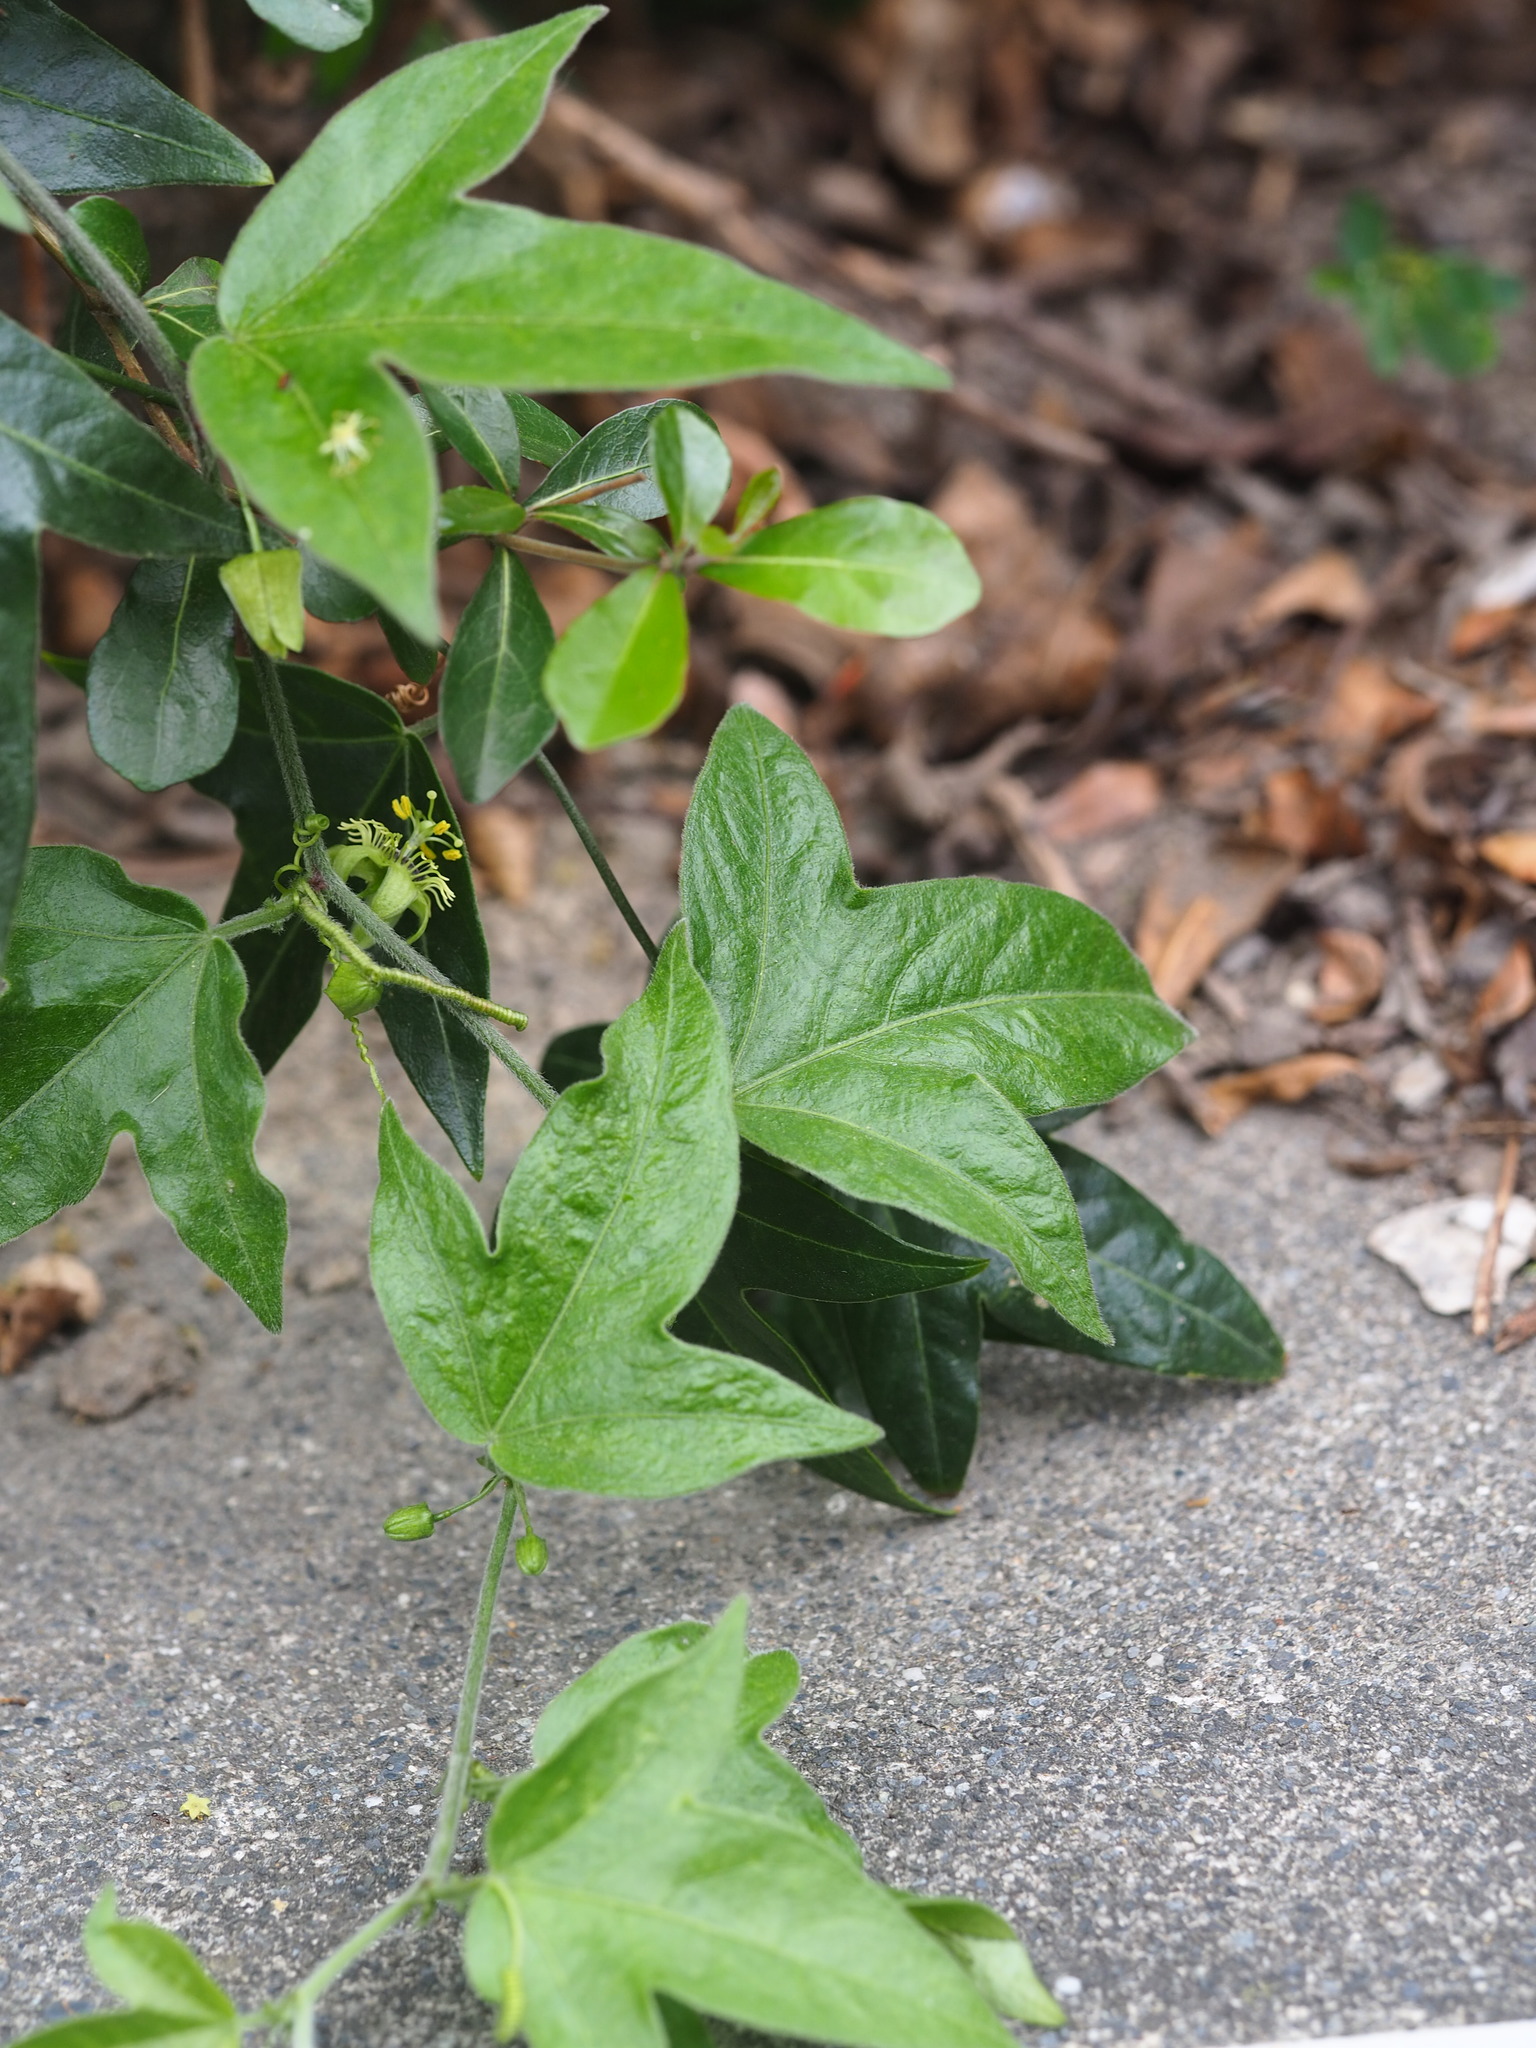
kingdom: Plantae
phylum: Tracheophyta
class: Magnoliopsida
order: Malpighiales
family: Passifloraceae
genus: Passiflora
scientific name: Passiflora suberosa
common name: Wild passionfruit
